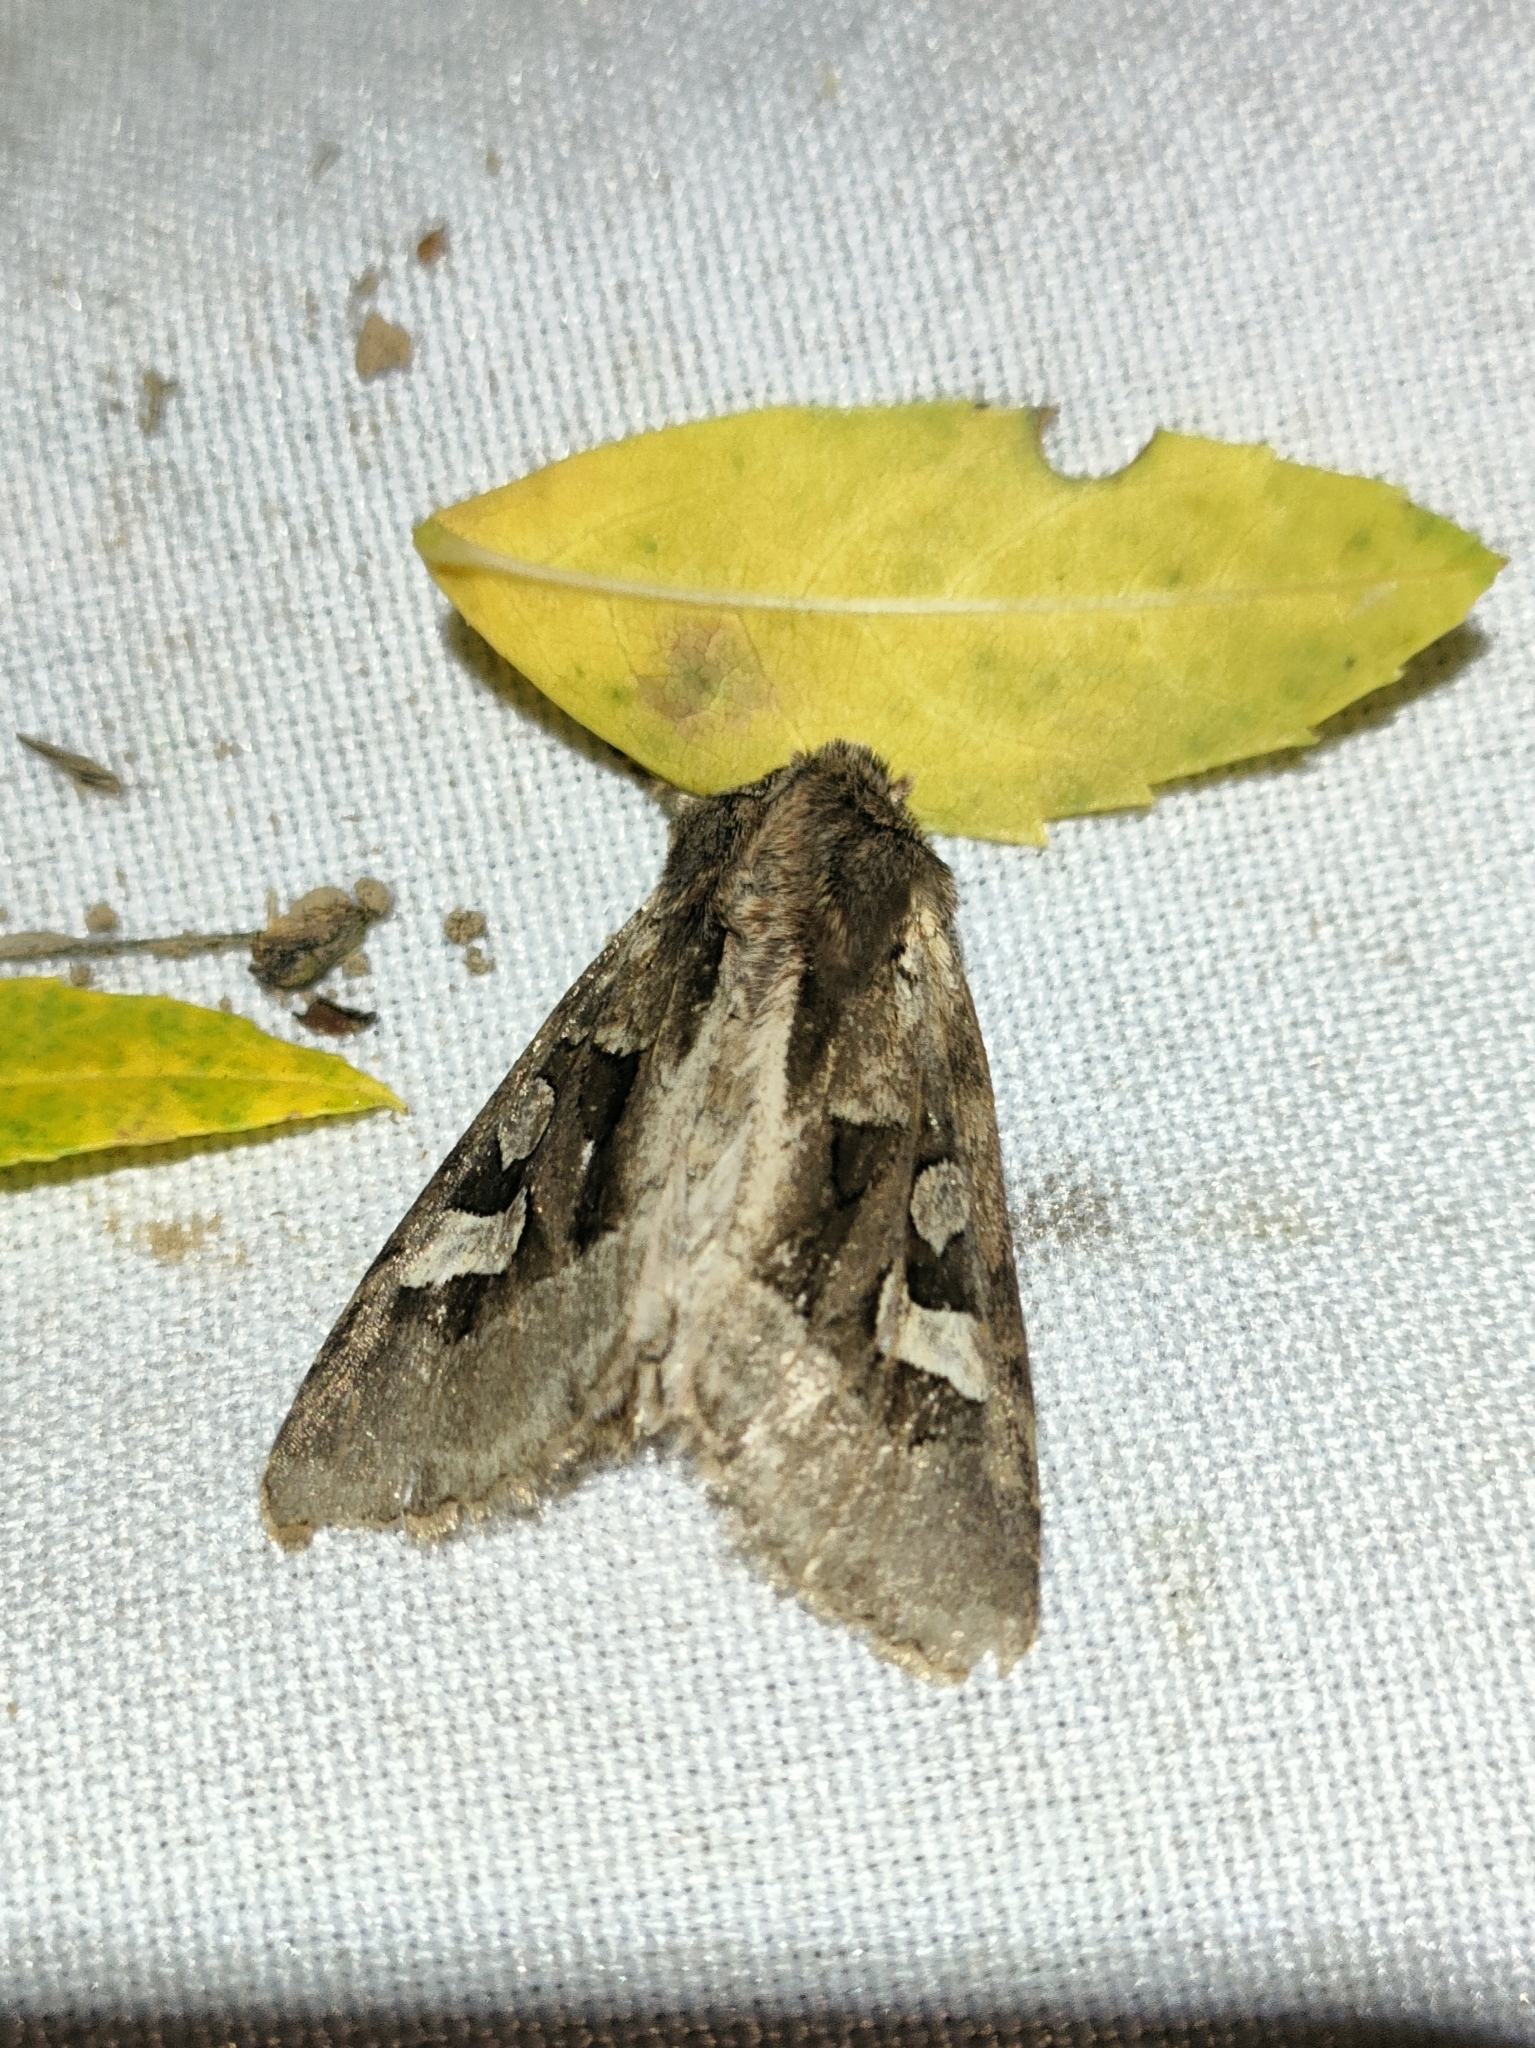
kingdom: Animalia
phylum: Arthropoda
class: Insecta
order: Lepidoptera
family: Noctuidae
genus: Trigonophora
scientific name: Trigonophora crassicornis
